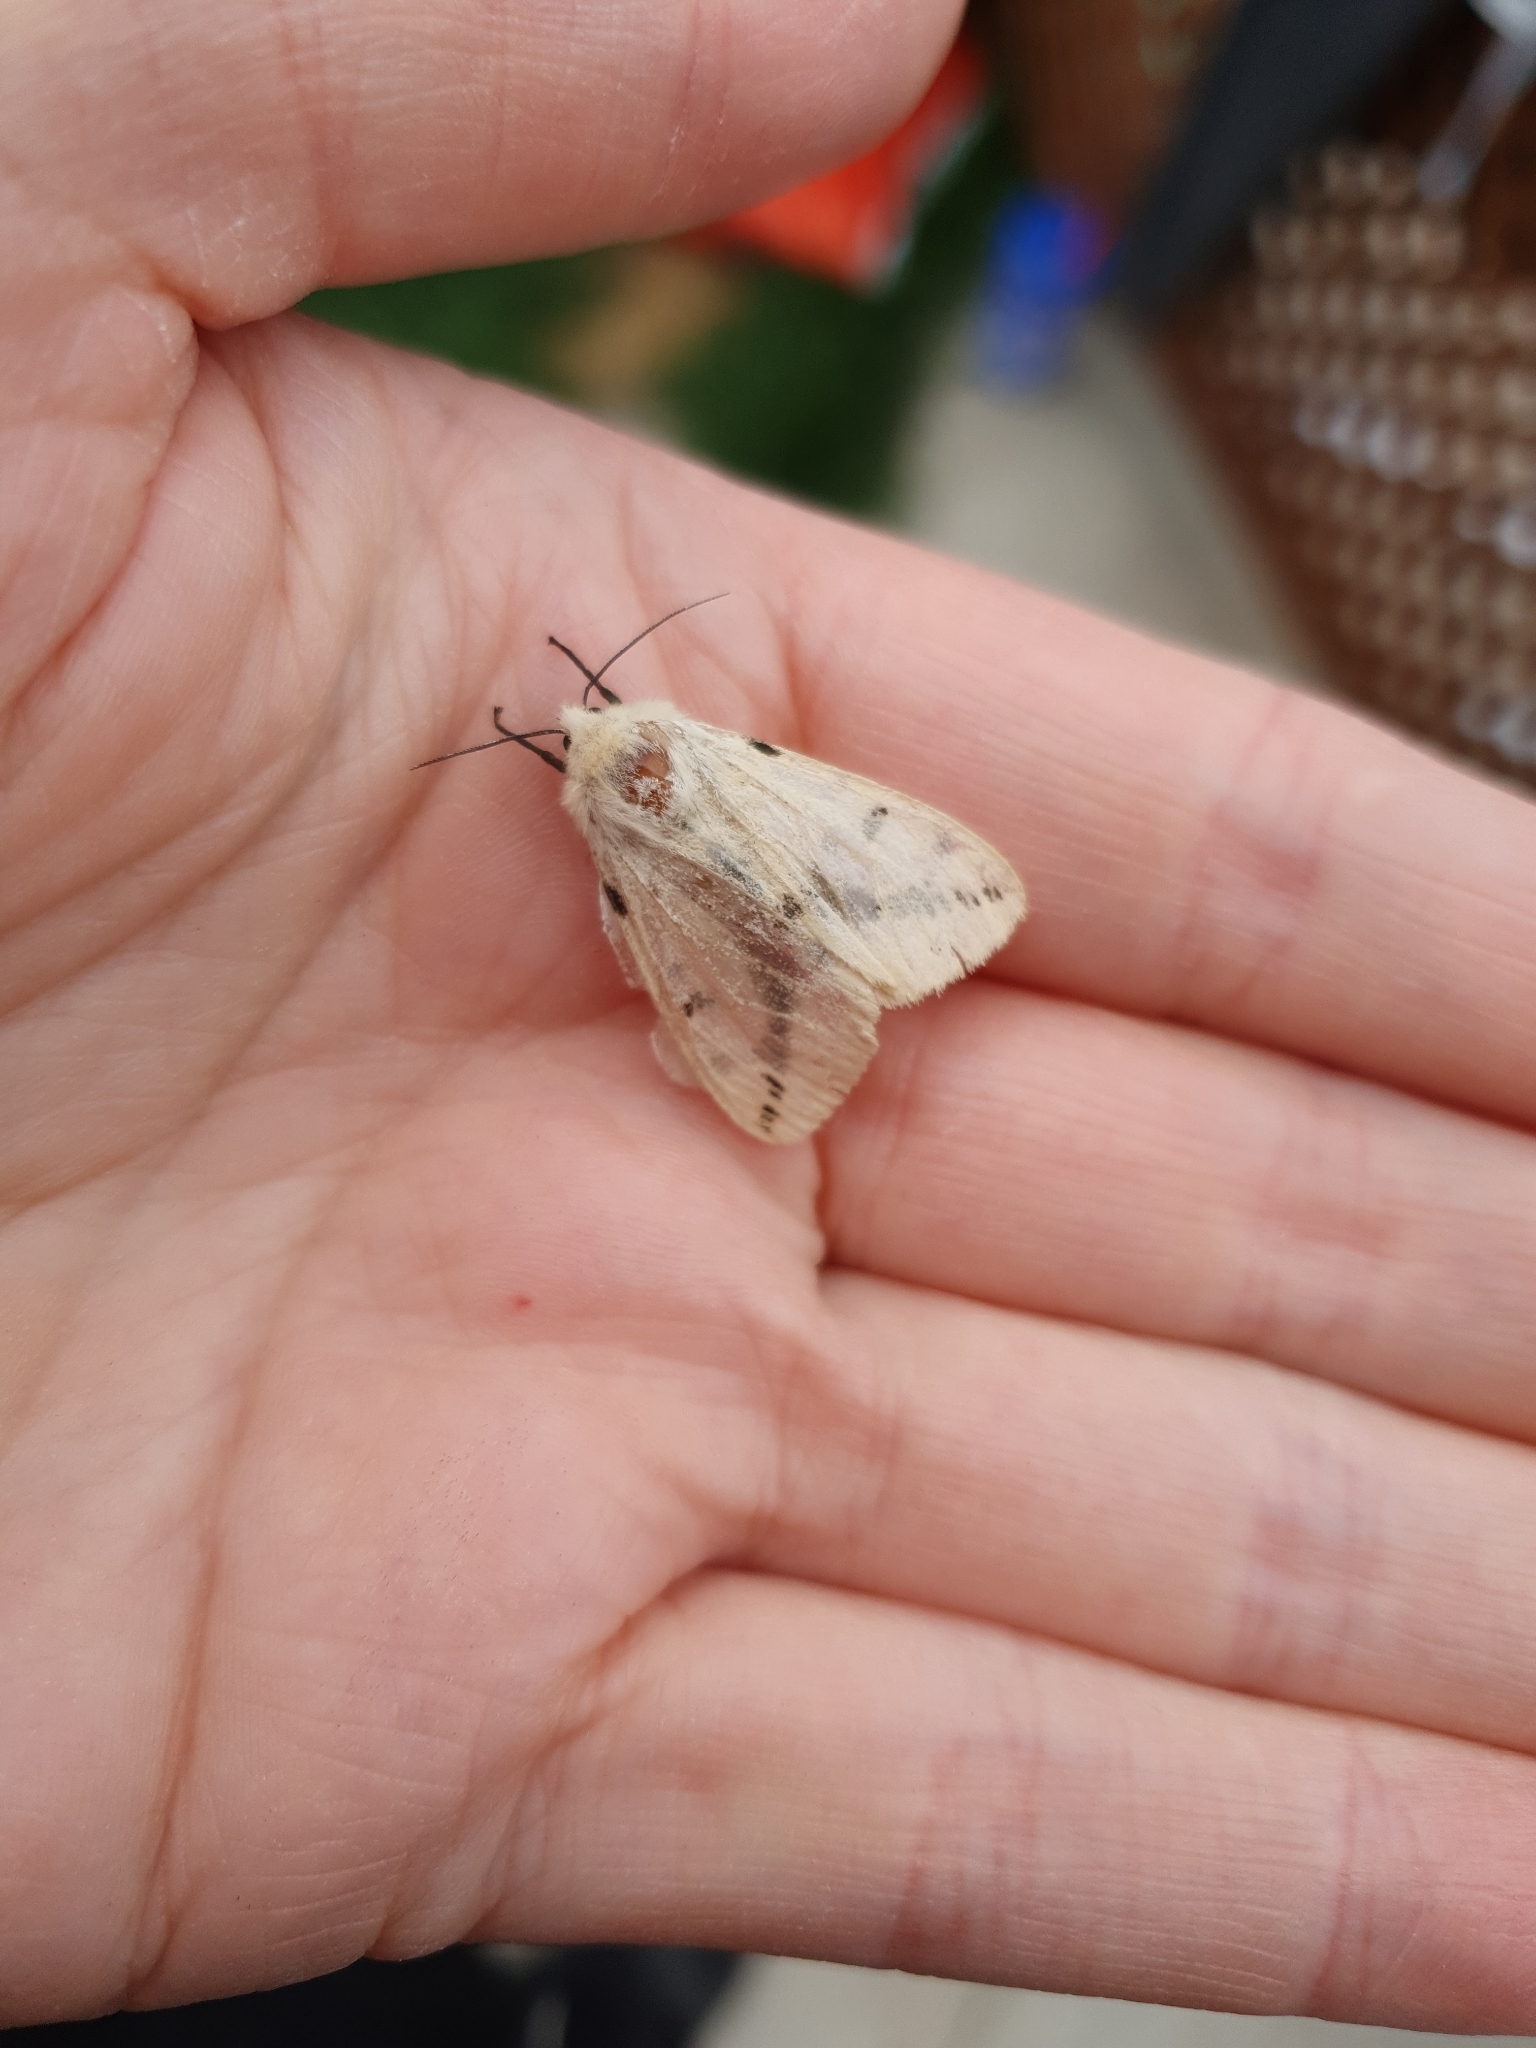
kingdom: Animalia
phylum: Arthropoda
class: Insecta
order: Lepidoptera
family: Erebidae
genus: Spilarctia
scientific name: Spilarctia lutea
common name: Buff ermine
